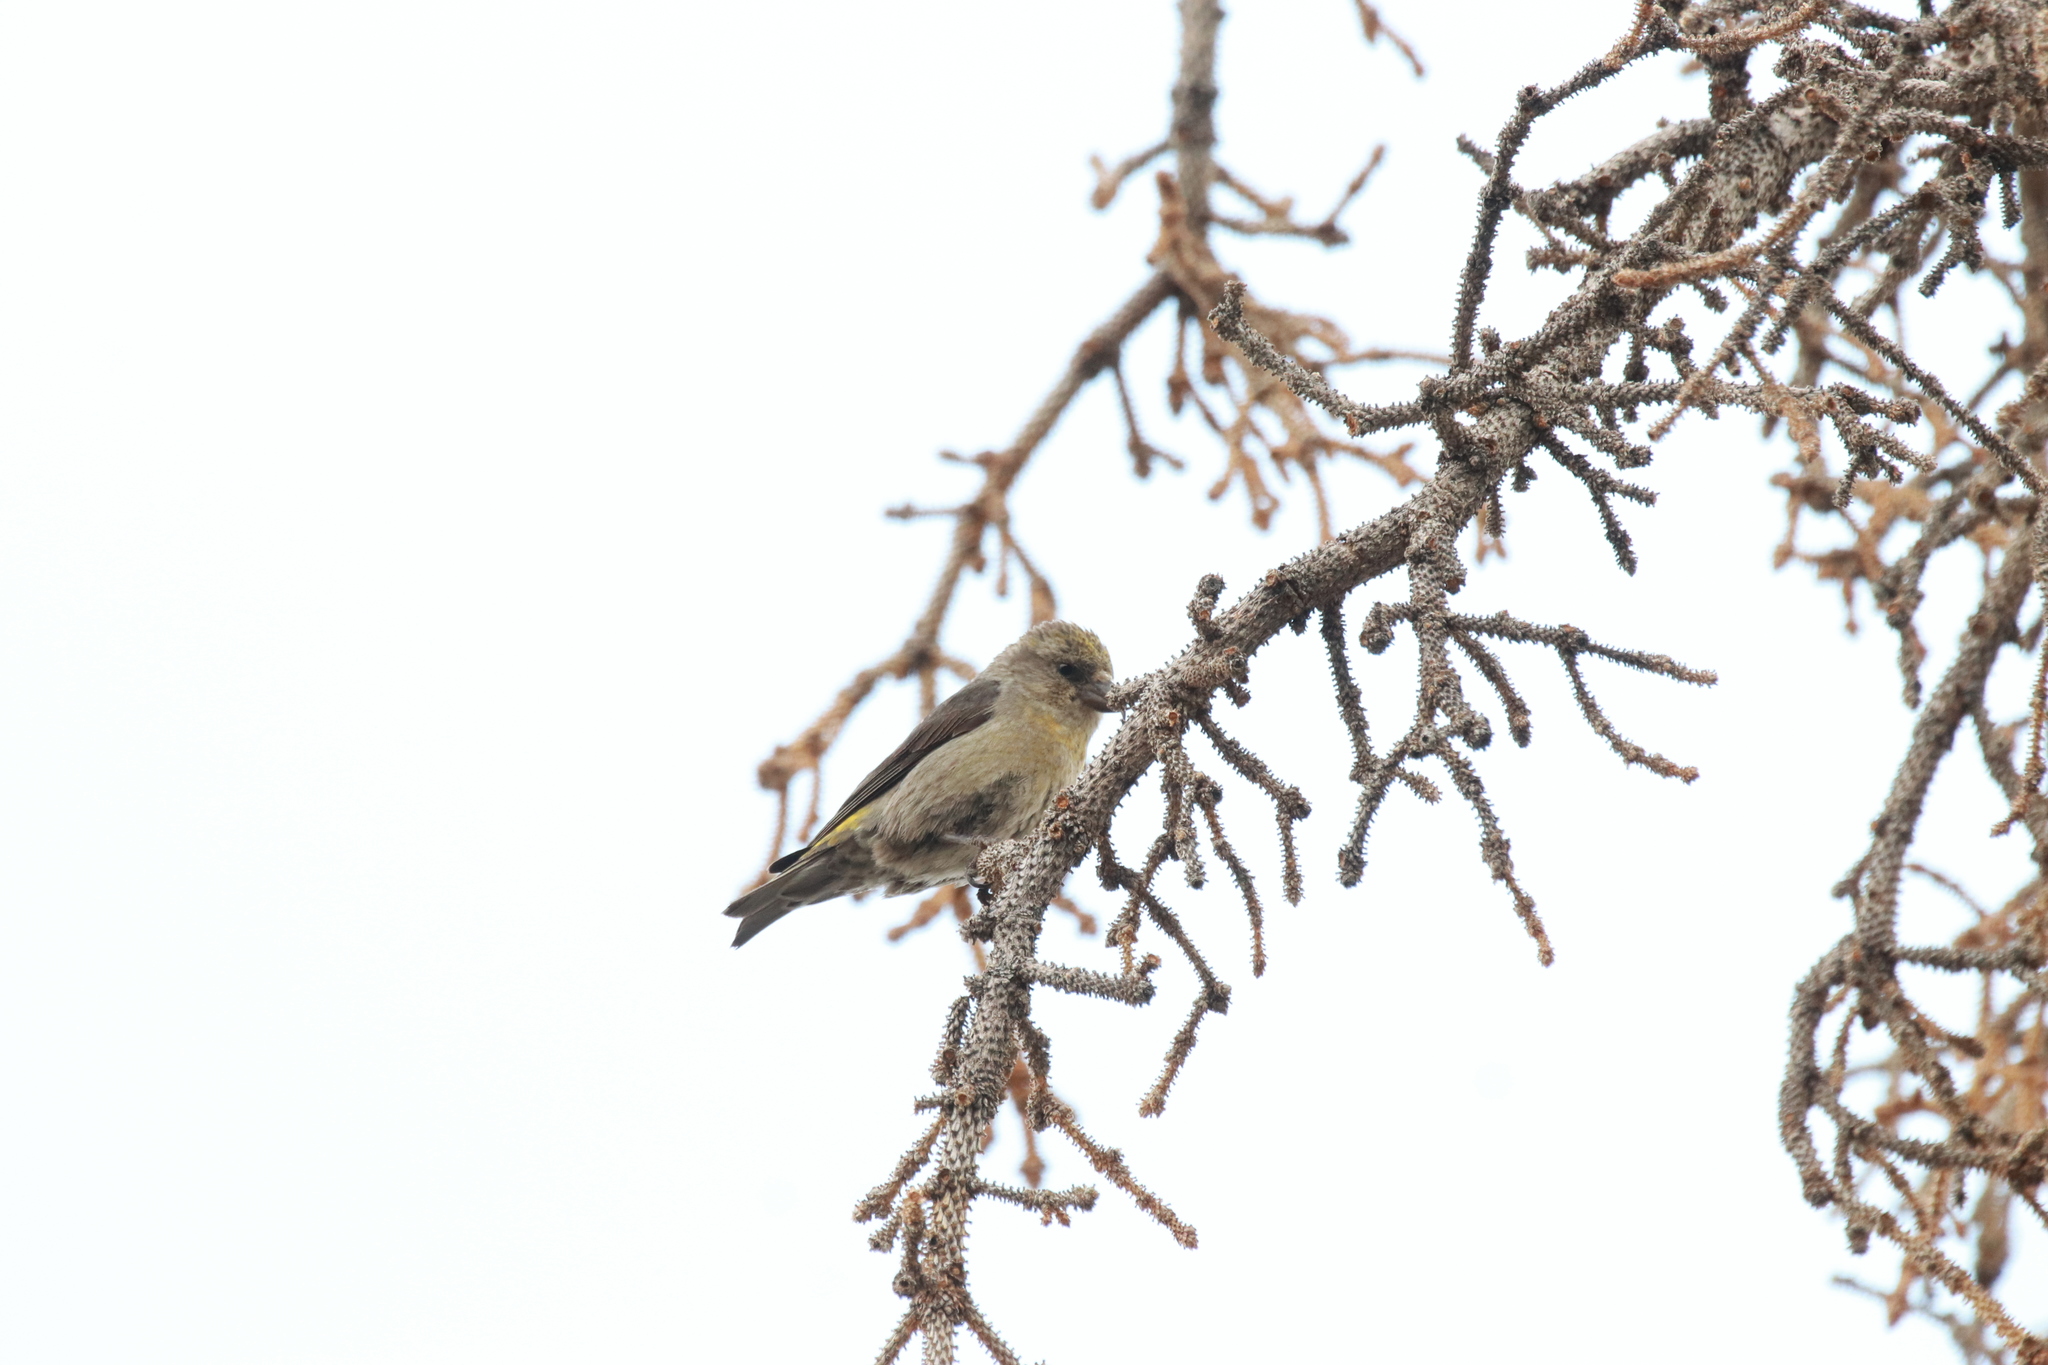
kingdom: Animalia
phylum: Chordata
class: Aves
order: Passeriformes
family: Fringillidae
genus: Loxia
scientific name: Loxia curvirostra
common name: Red crossbill
